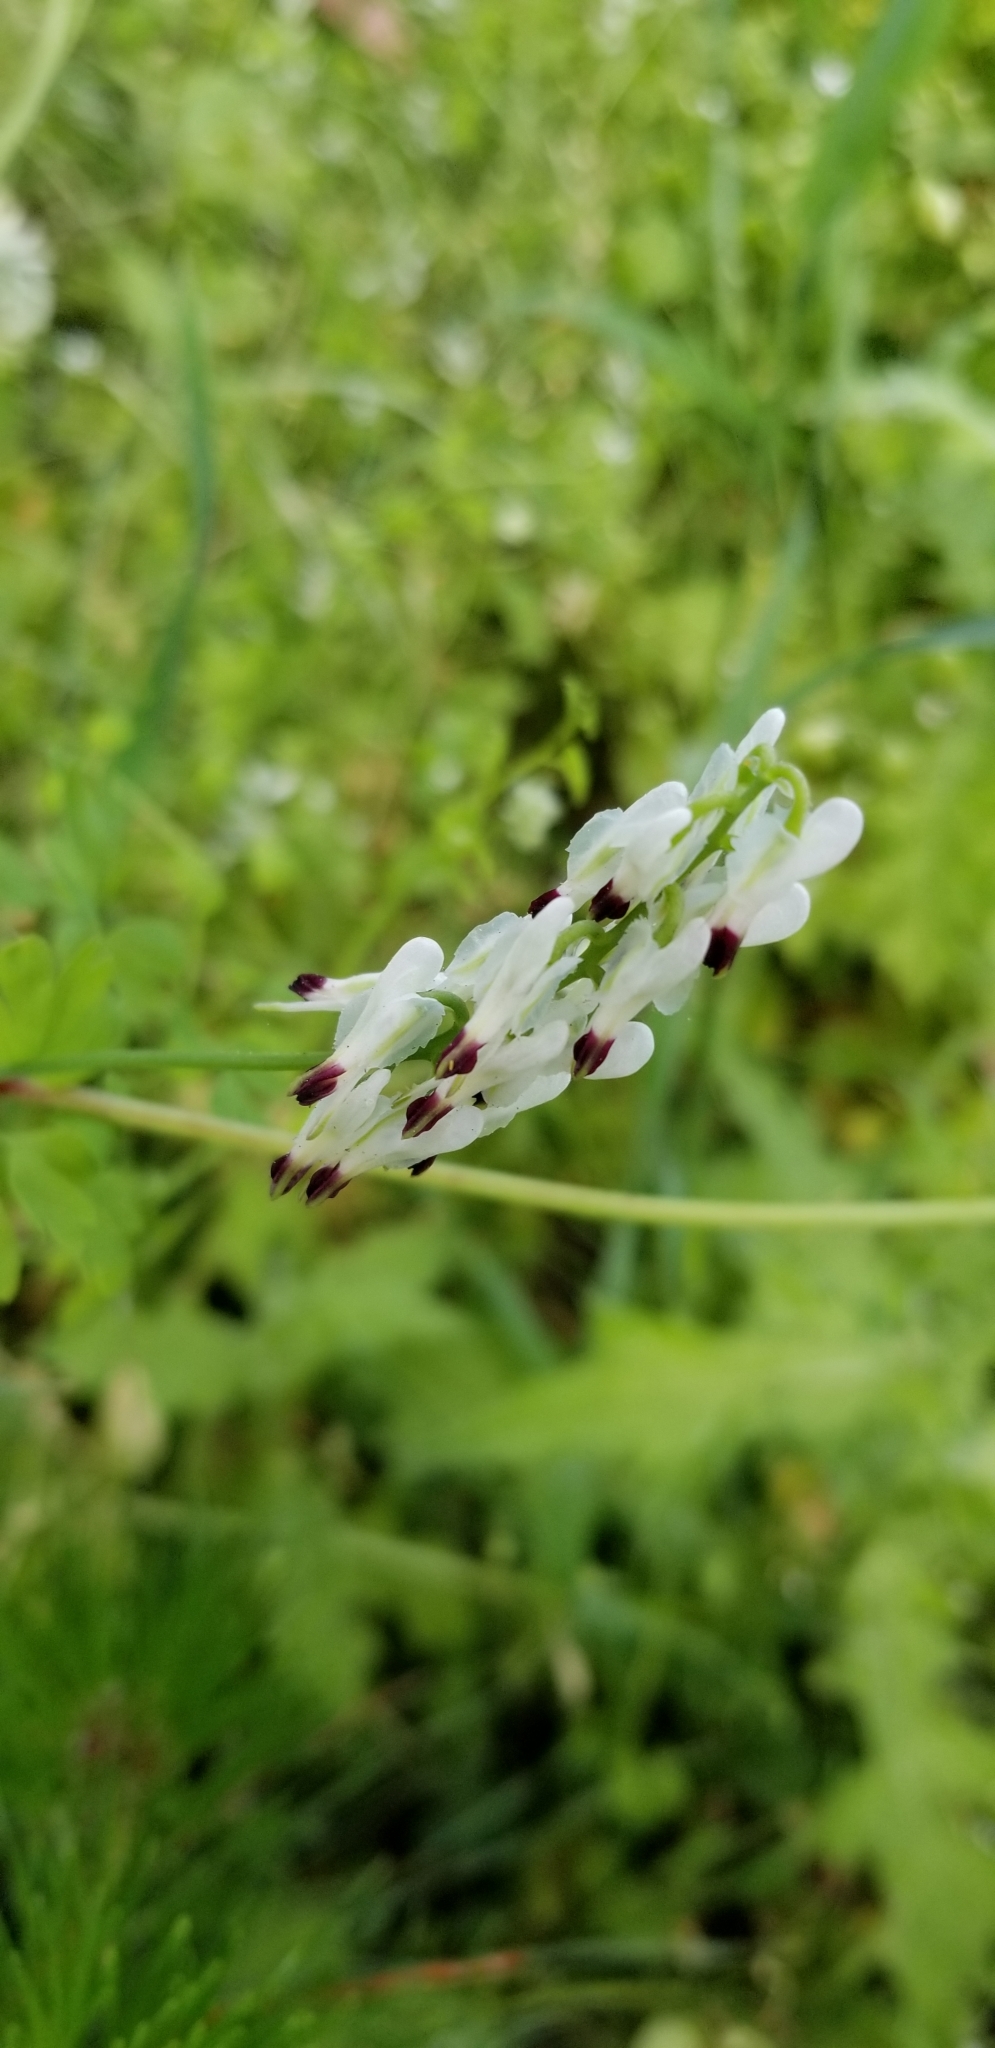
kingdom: Plantae
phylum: Tracheophyta
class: Magnoliopsida
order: Ranunculales
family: Papaveraceae
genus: Fumaria
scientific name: Fumaria capreolata
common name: White ramping-fumitory
